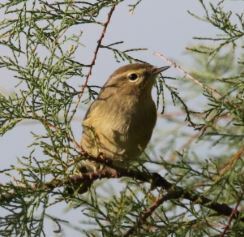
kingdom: Animalia
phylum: Chordata
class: Aves
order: Passeriformes
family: Phylloscopidae
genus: Phylloscopus
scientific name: Phylloscopus collybita
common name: Common chiffchaff
